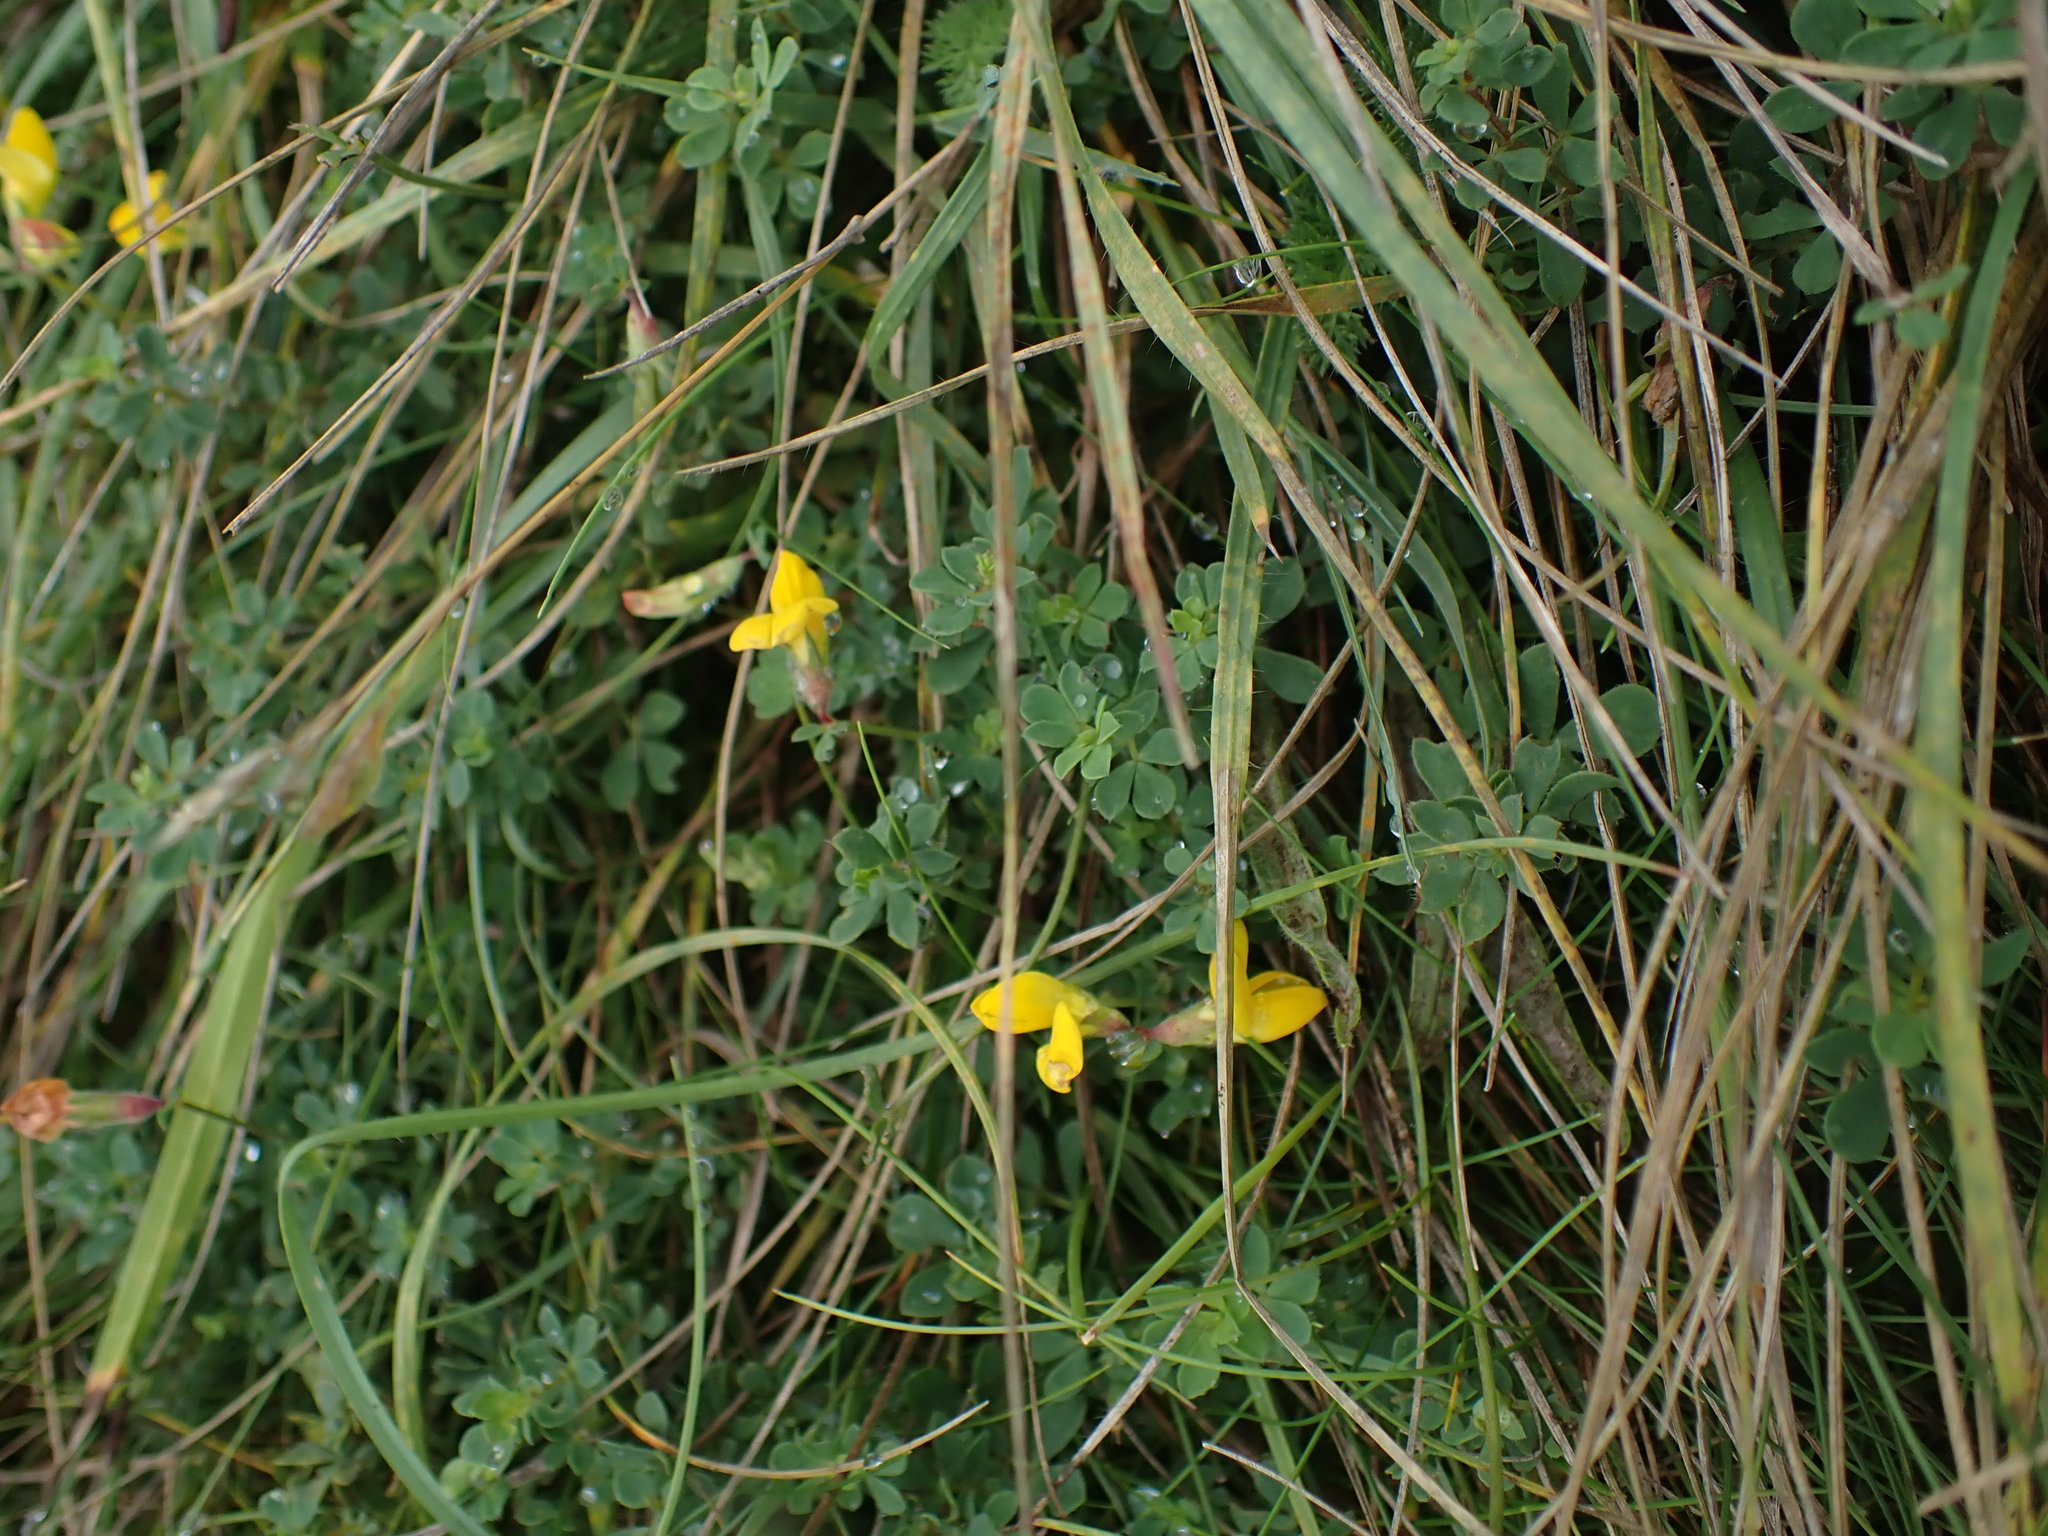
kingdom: Plantae
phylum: Tracheophyta
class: Magnoliopsida
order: Fabales
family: Fabaceae
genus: Lotus
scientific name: Lotus corniculatus
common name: Common bird's-foot-trefoil
